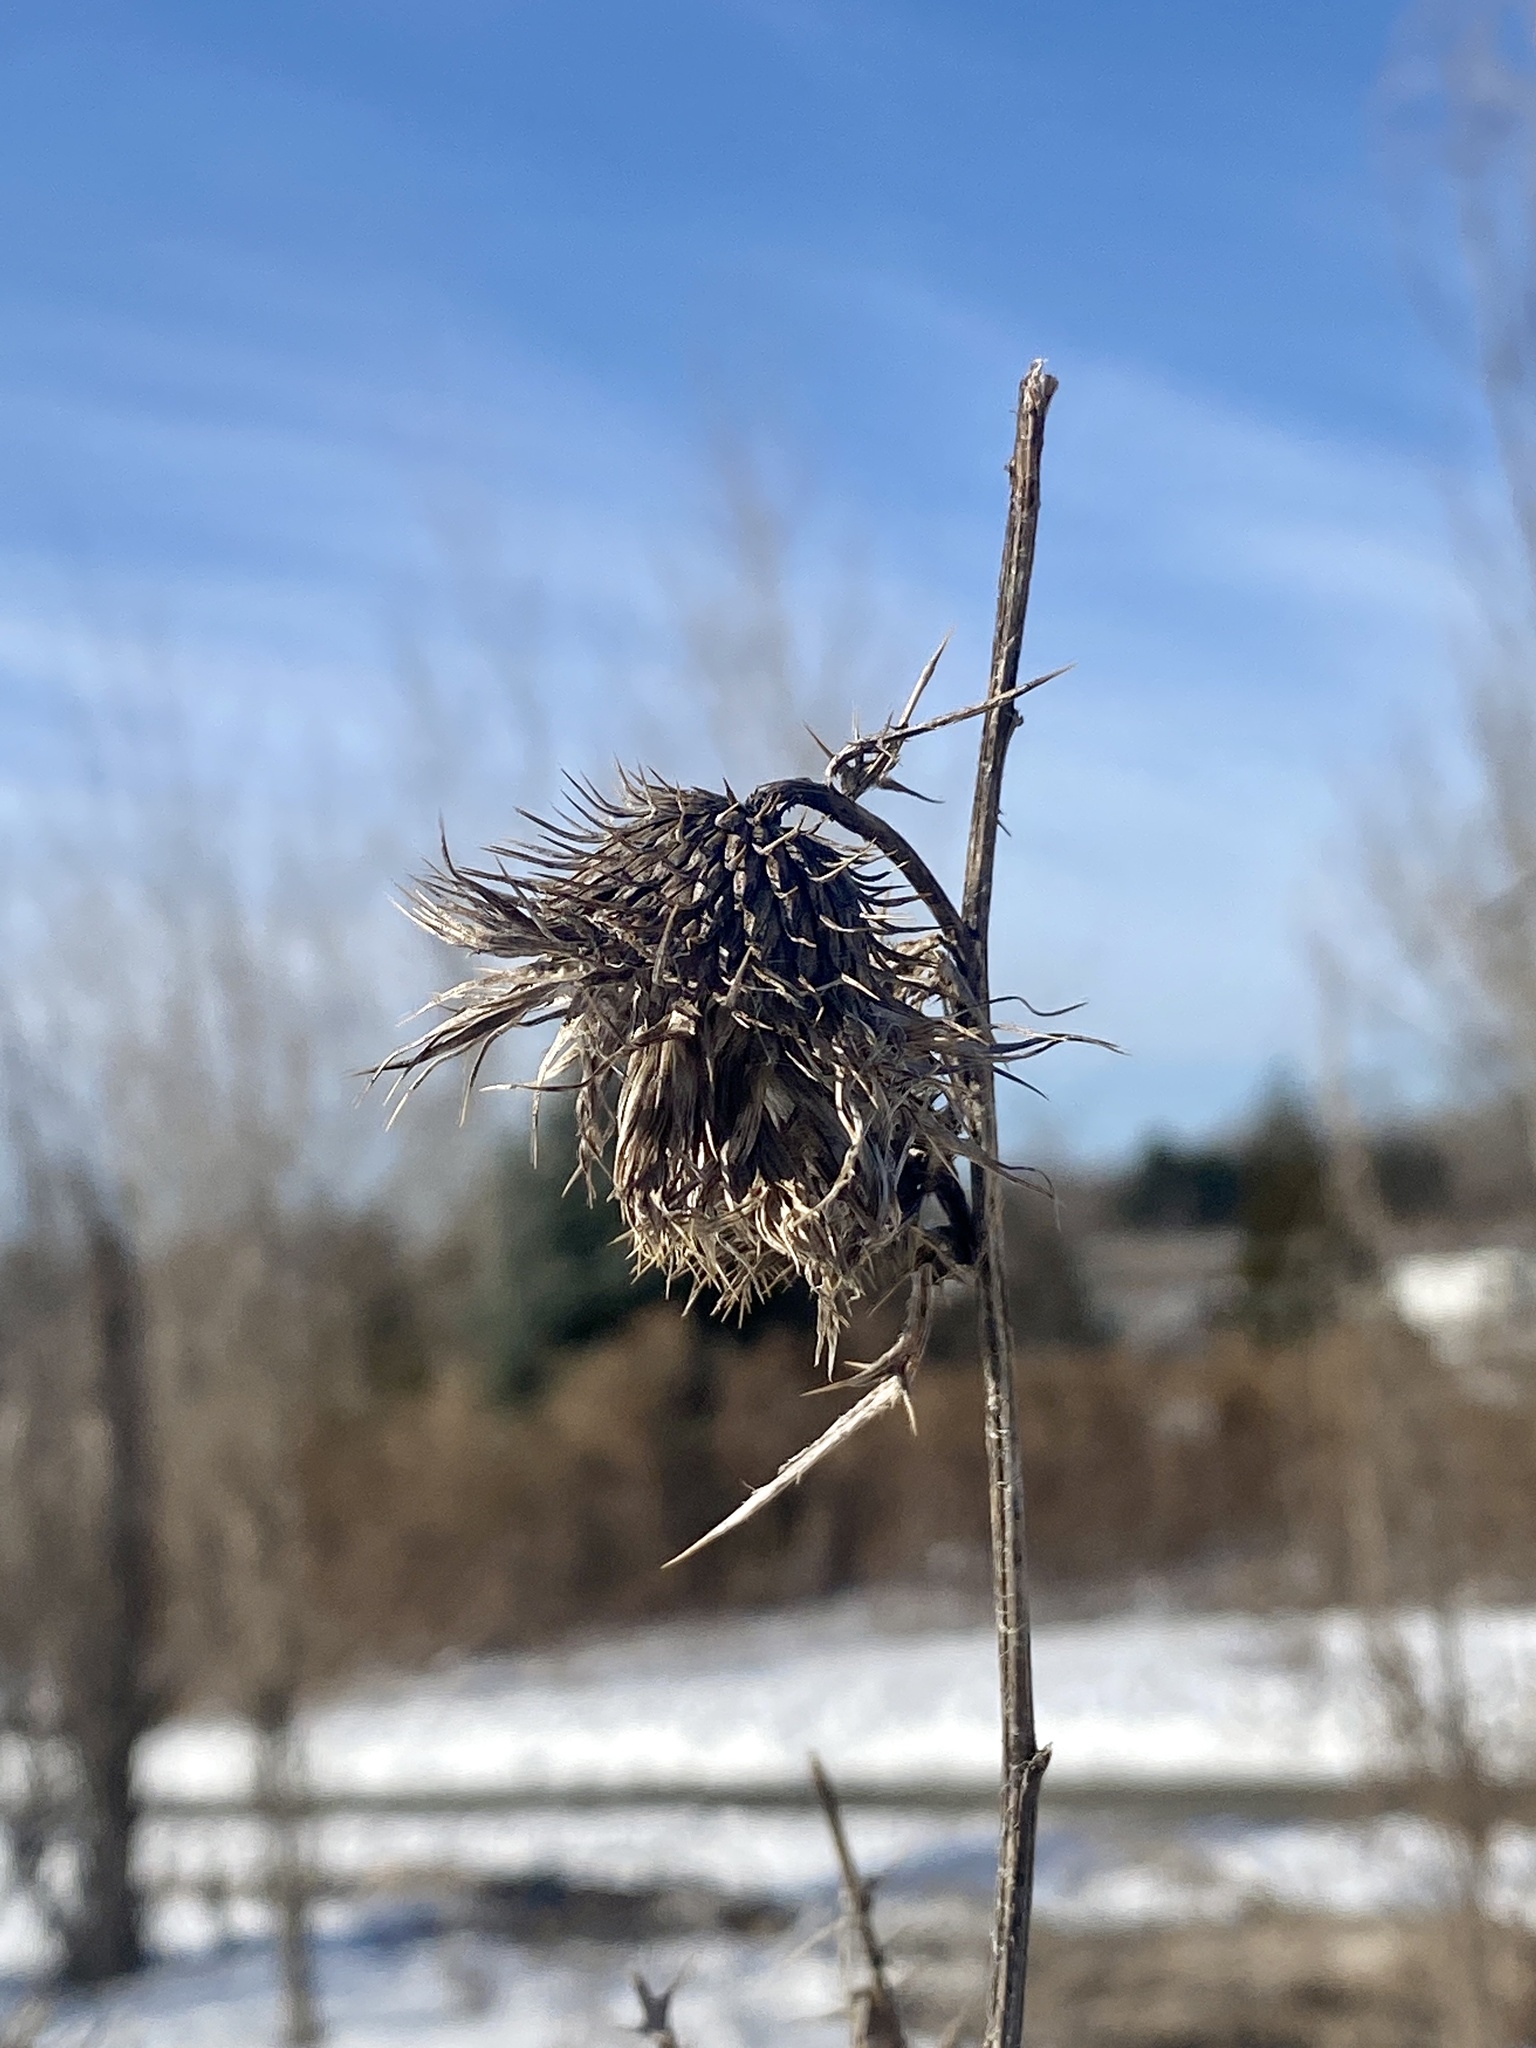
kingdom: Plantae
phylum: Tracheophyta
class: Magnoliopsida
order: Asterales
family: Asteraceae
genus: Cirsium
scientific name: Cirsium vulgare
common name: Bull thistle
